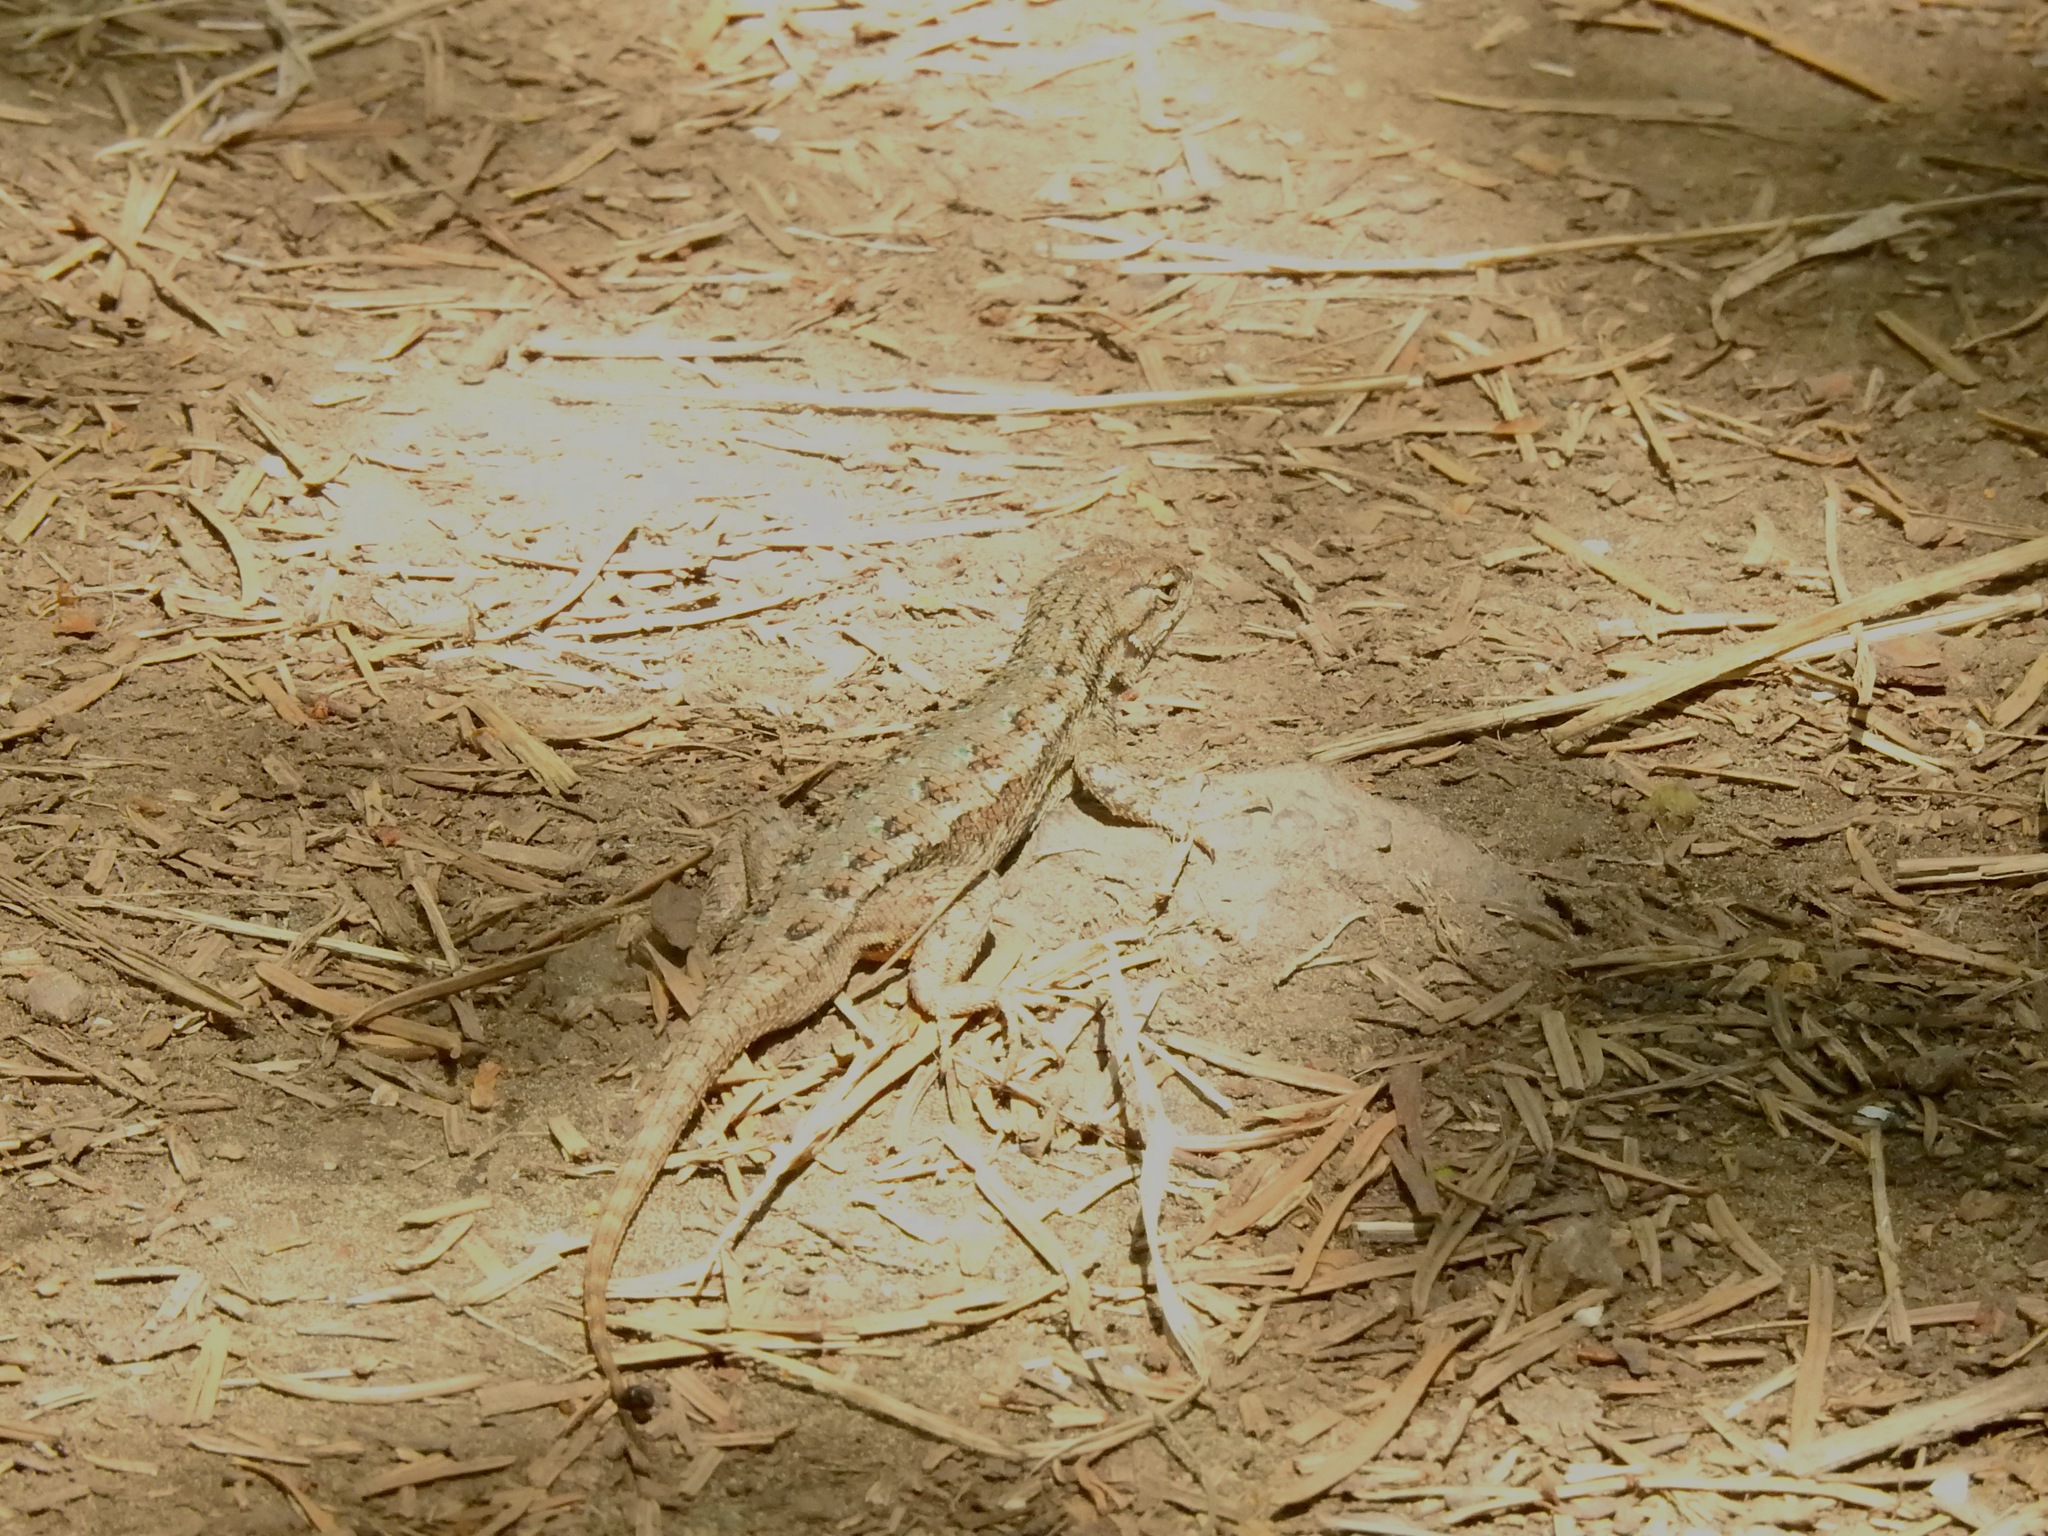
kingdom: Animalia
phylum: Chordata
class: Squamata
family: Phrynosomatidae
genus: Sceloporus
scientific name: Sceloporus occidentalis
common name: Western fence lizard
